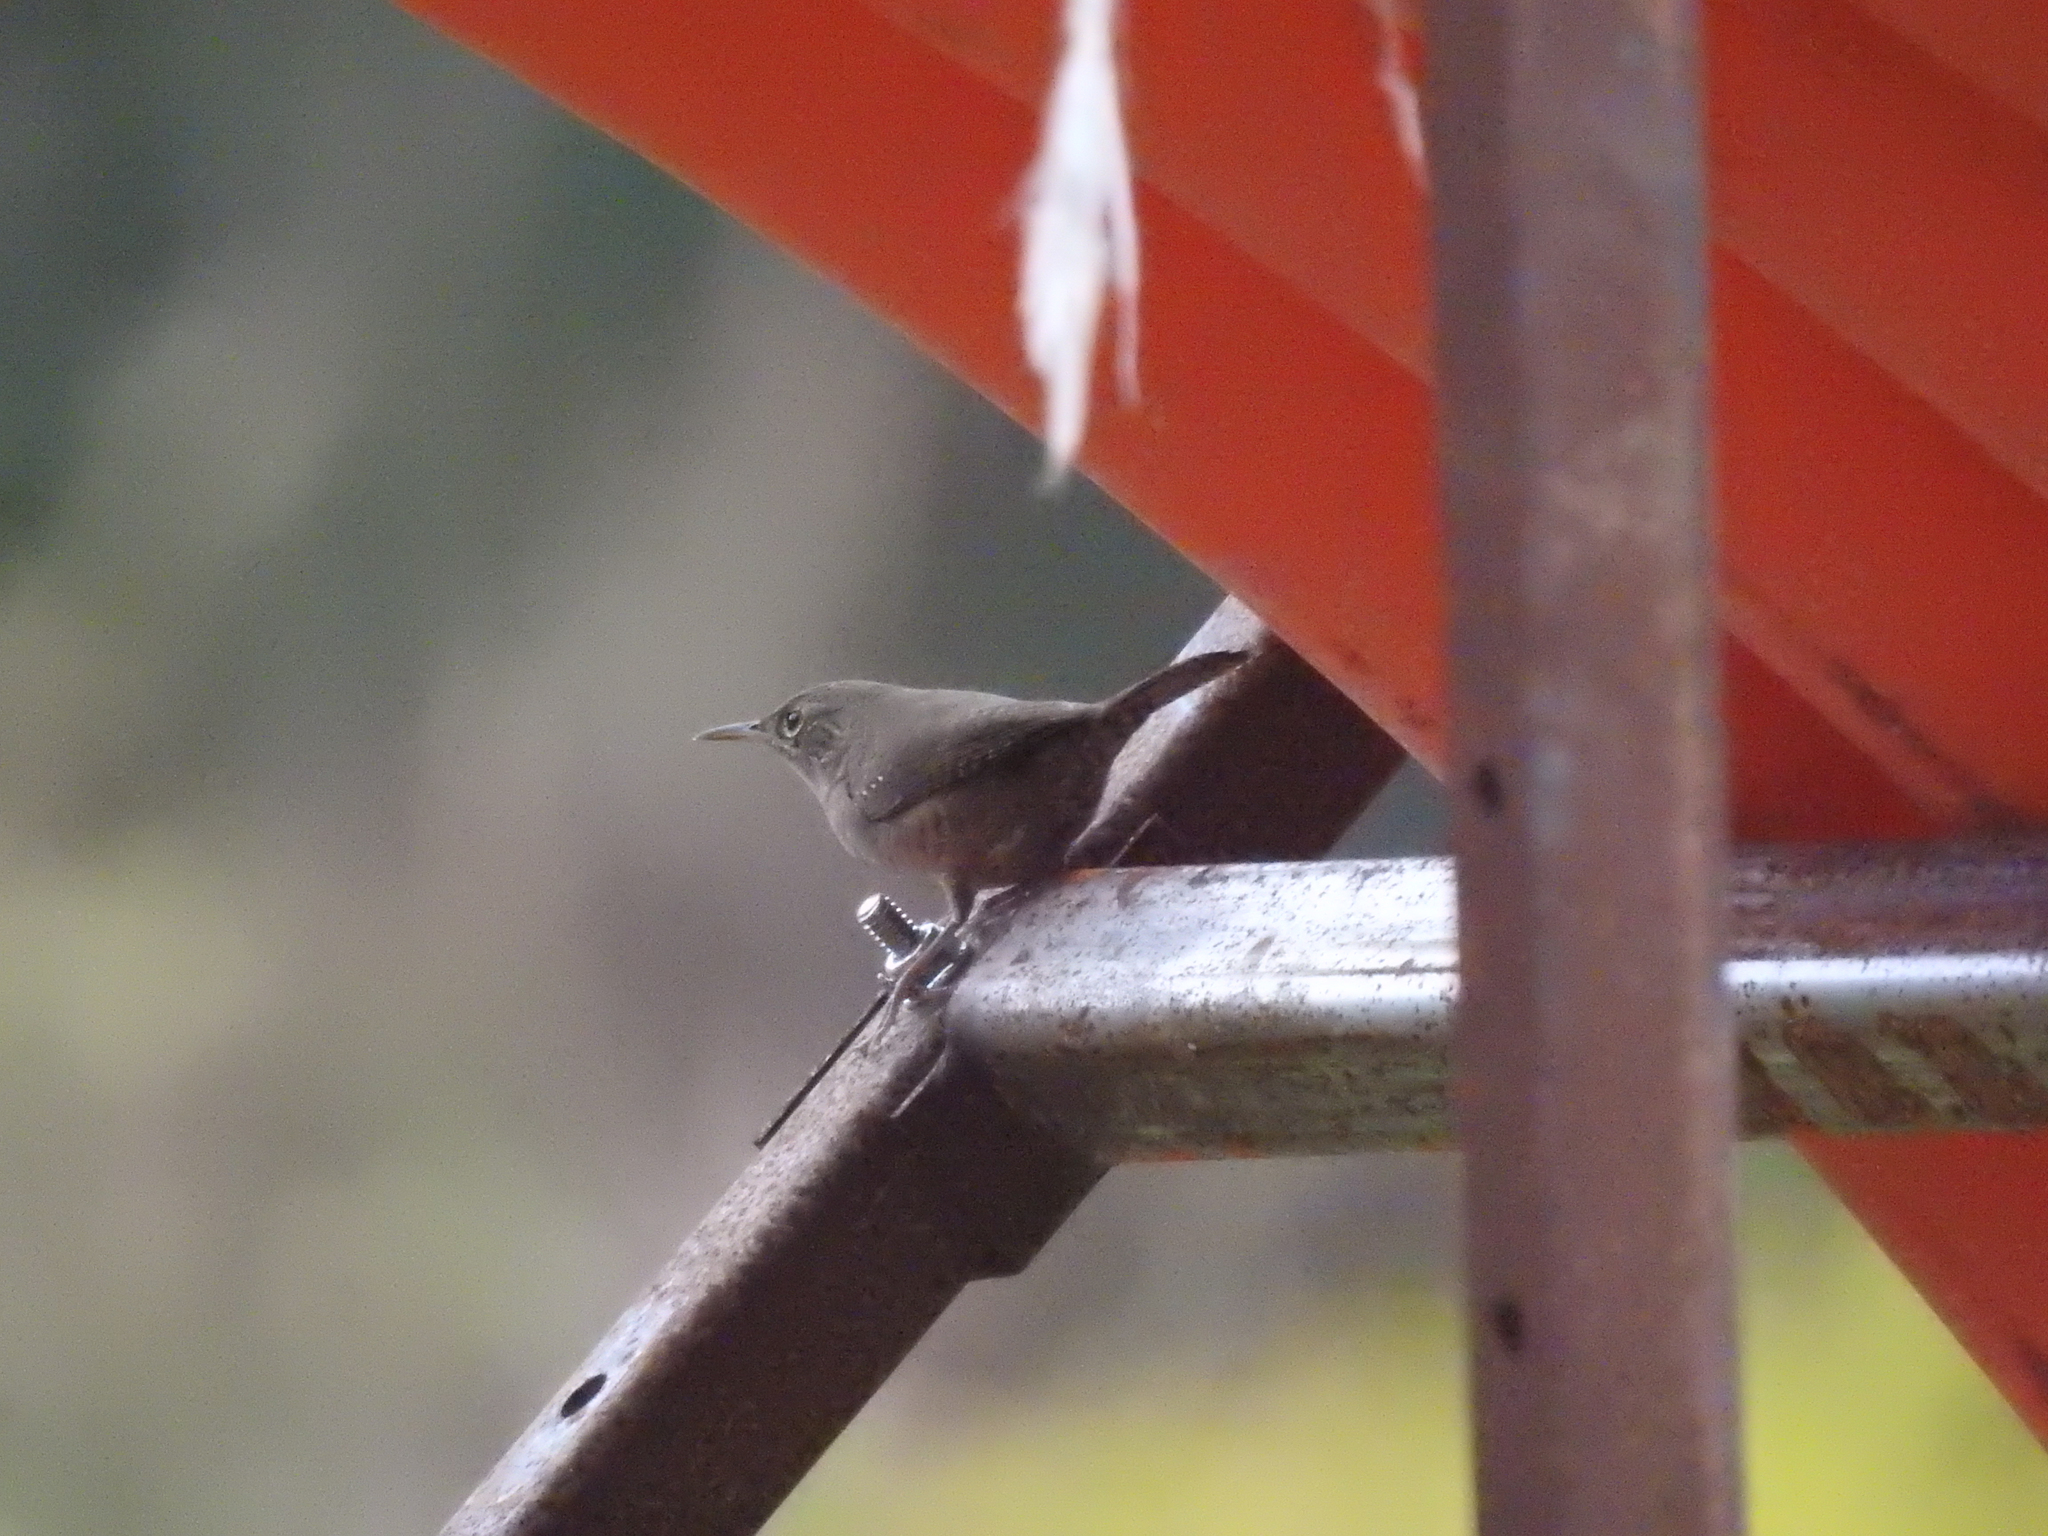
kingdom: Animalia
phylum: Chordata
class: Aves
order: Passeriformes
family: Troglodytidae
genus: Troglodytes
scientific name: Troglodytes aedon
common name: House wren
